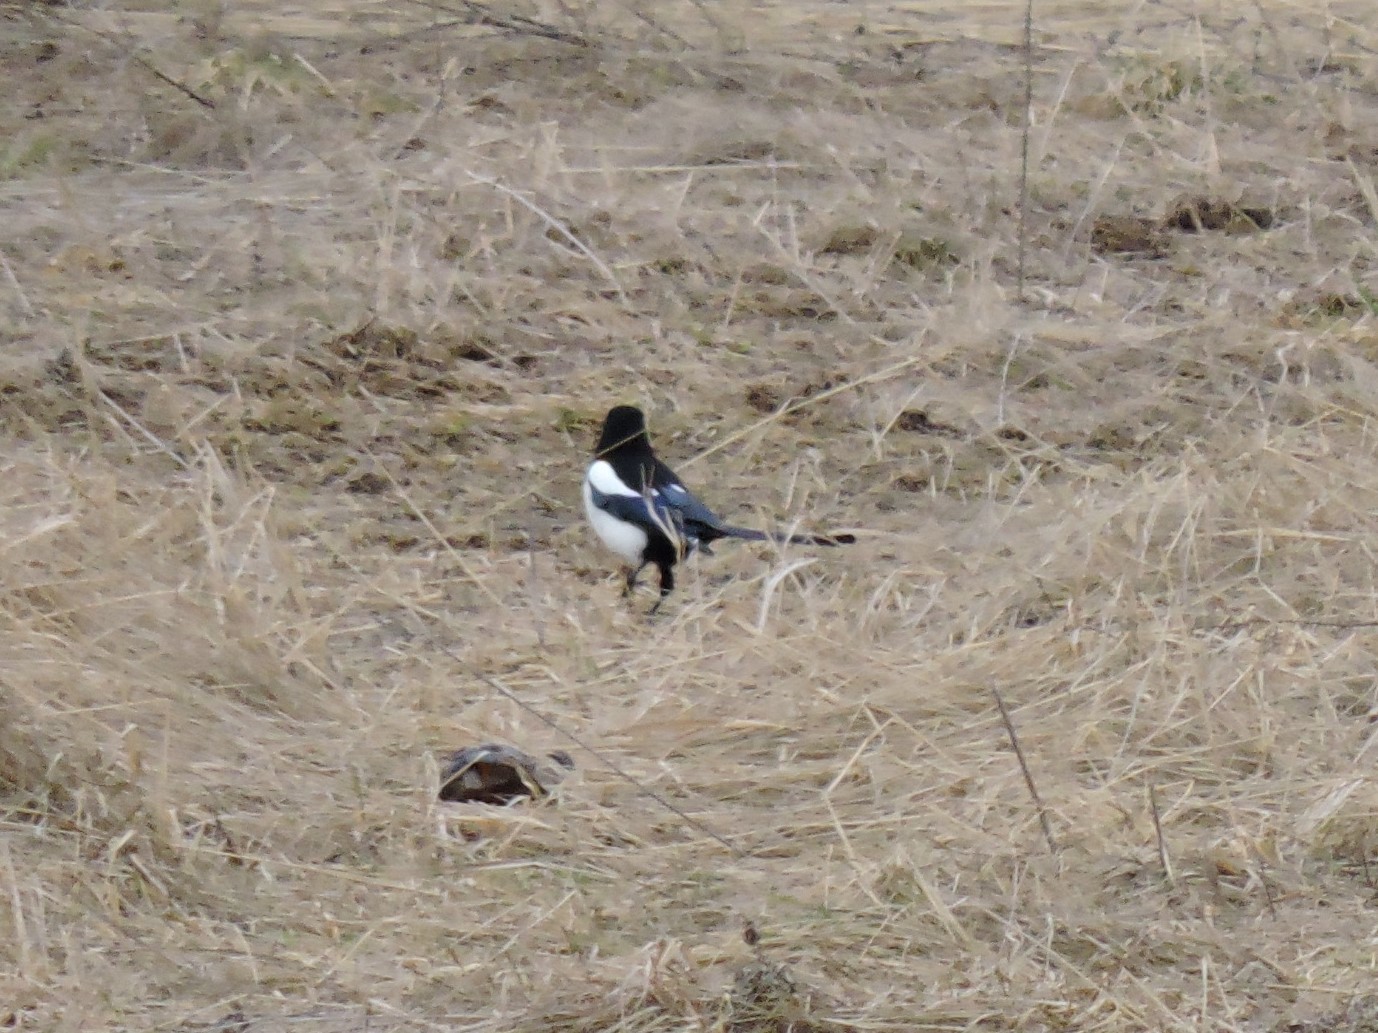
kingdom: Animalia
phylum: Chordata
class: Aves
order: Passeriformes
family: Corvidae
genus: Pica
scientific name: Pica pica
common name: Eurasian magpie
